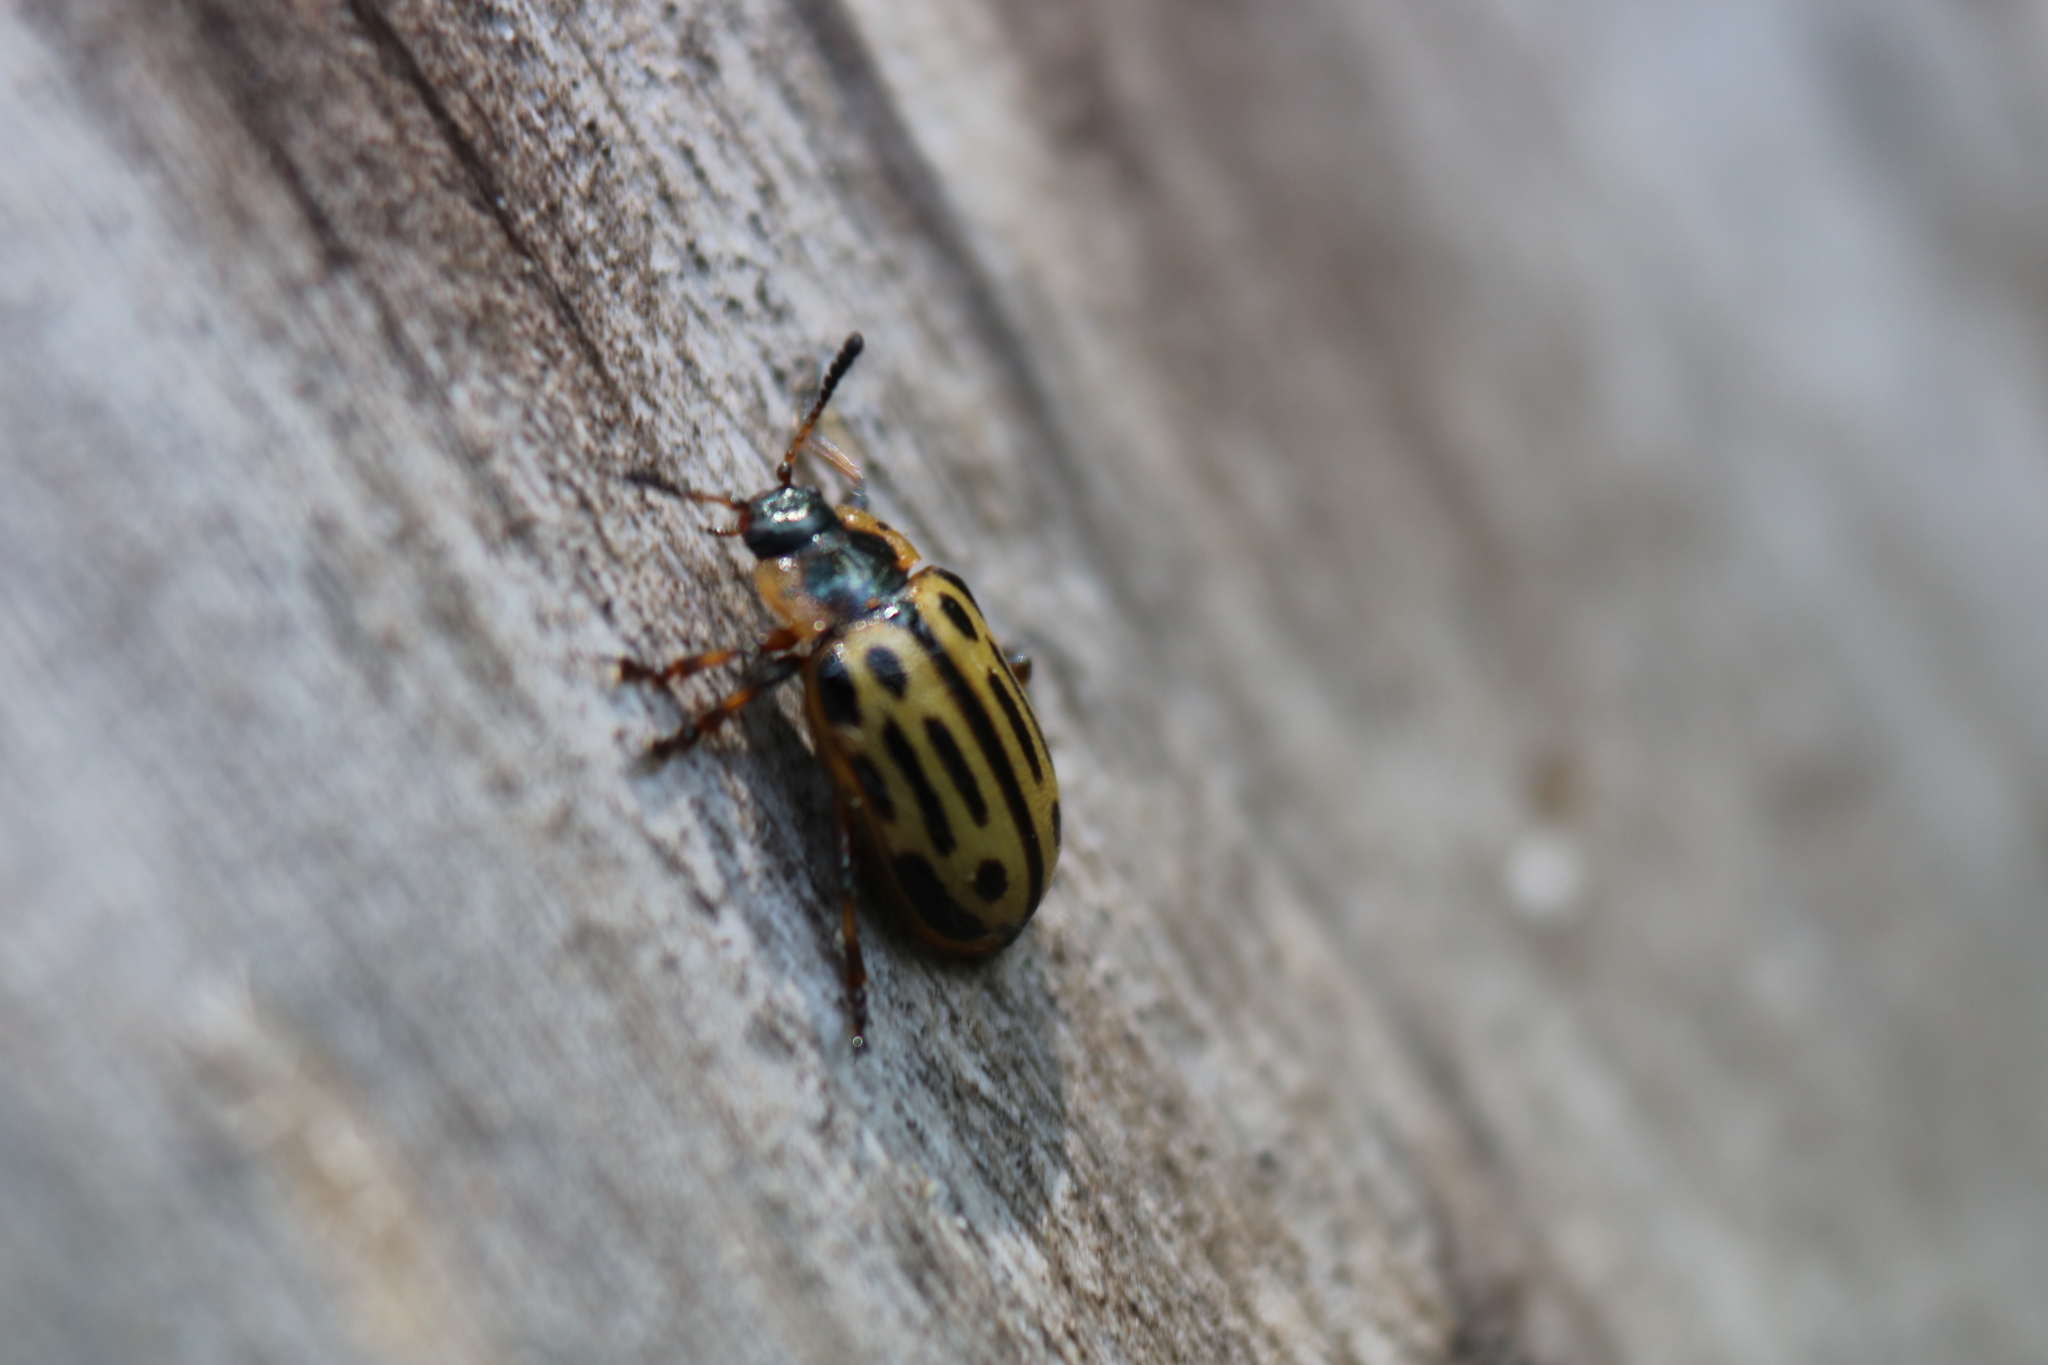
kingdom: Animalia
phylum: Arthropoda
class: Insecta
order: Coleoptera
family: Chrysomelidae
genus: Aethiopocassis
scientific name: Aethiopocassis scripta
